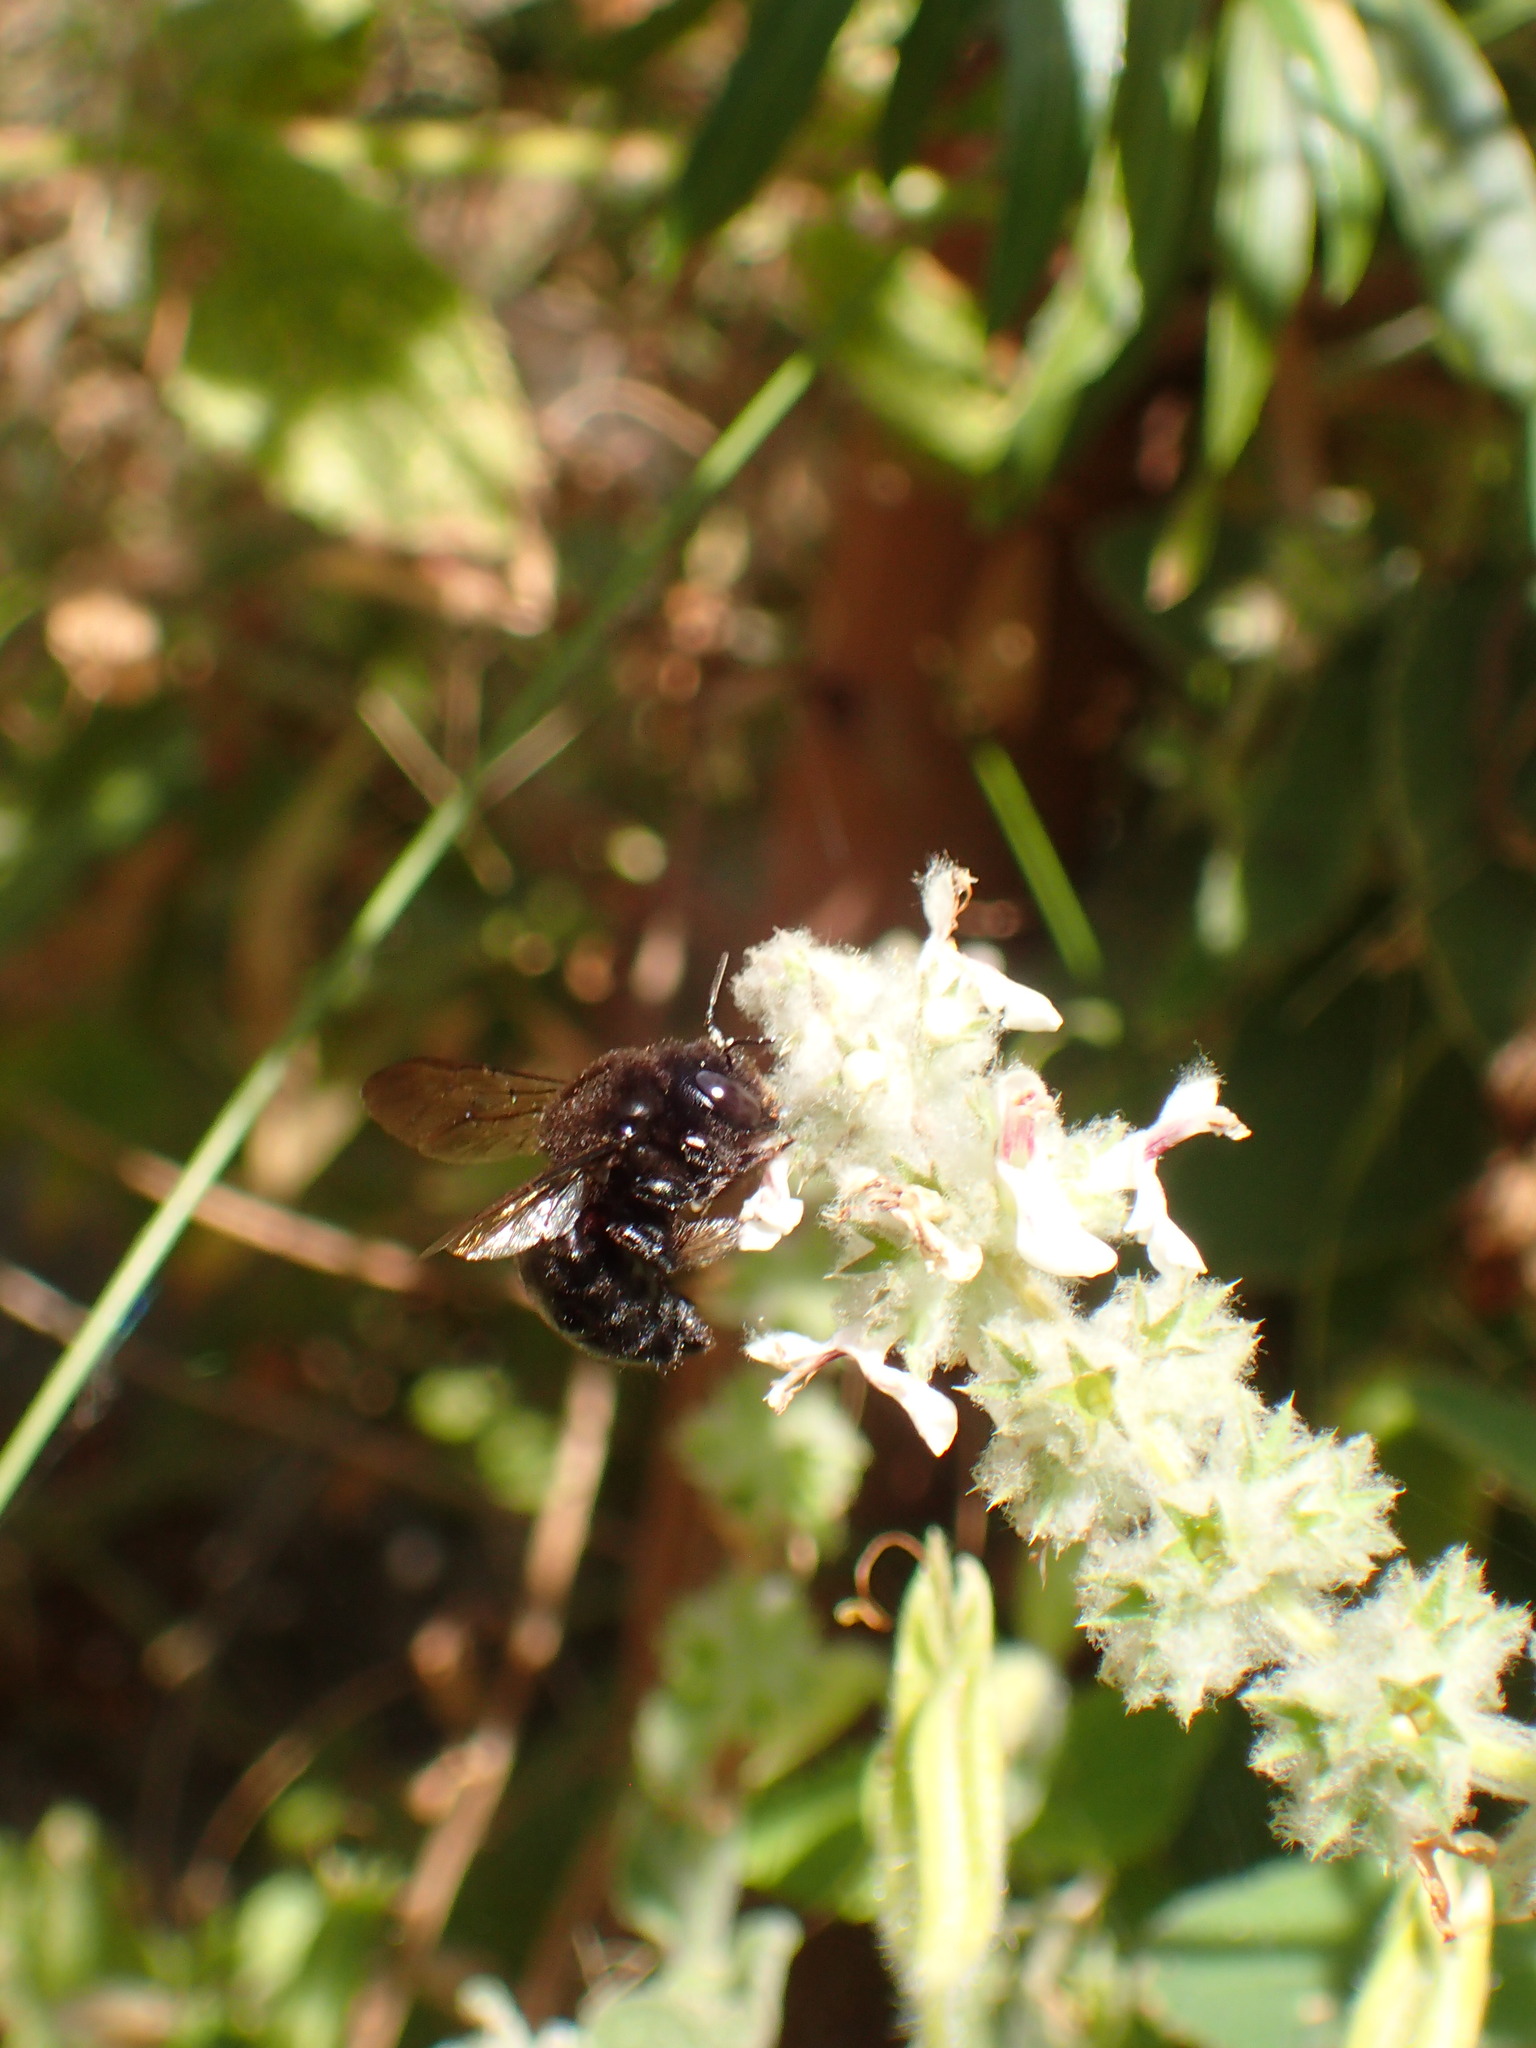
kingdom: Animalia
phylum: Arthropoda
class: Insecta
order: Hymenoptera
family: Apidae
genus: Xylocopa
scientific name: Xylocopa tabaniformis
